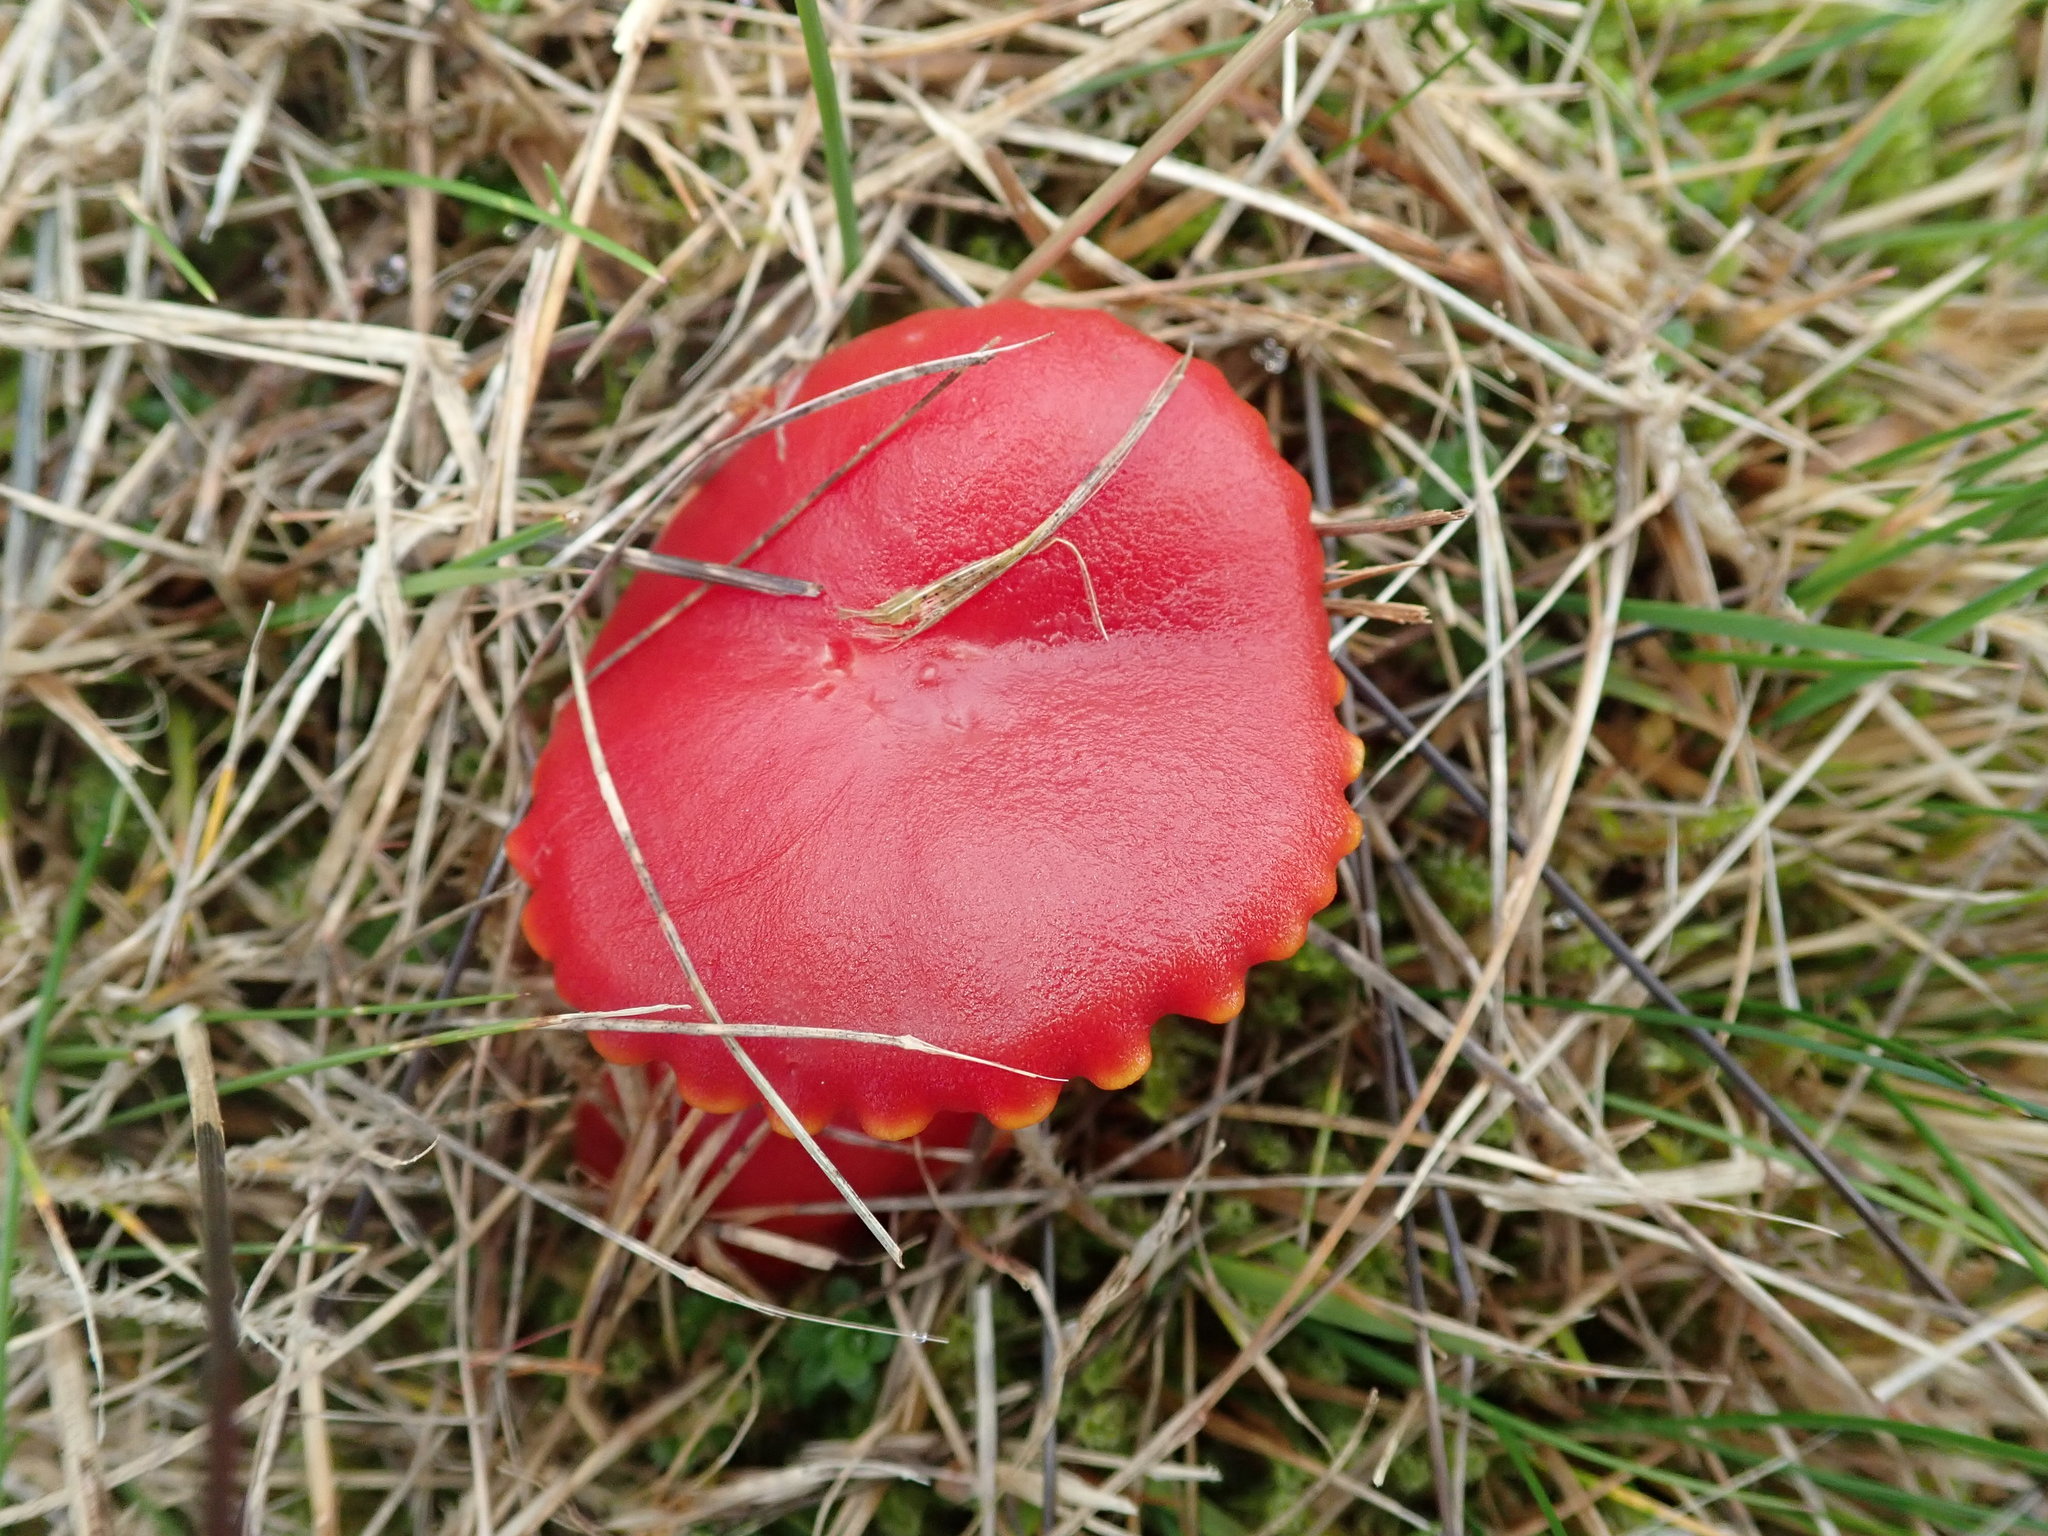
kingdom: Fungi
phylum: Basidiomycota
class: Agaricomycetes
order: Agaricales
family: Hygrophoraceae
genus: Hygrocybe
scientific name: Hygrocybe coccinea
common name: Scarlet hood
